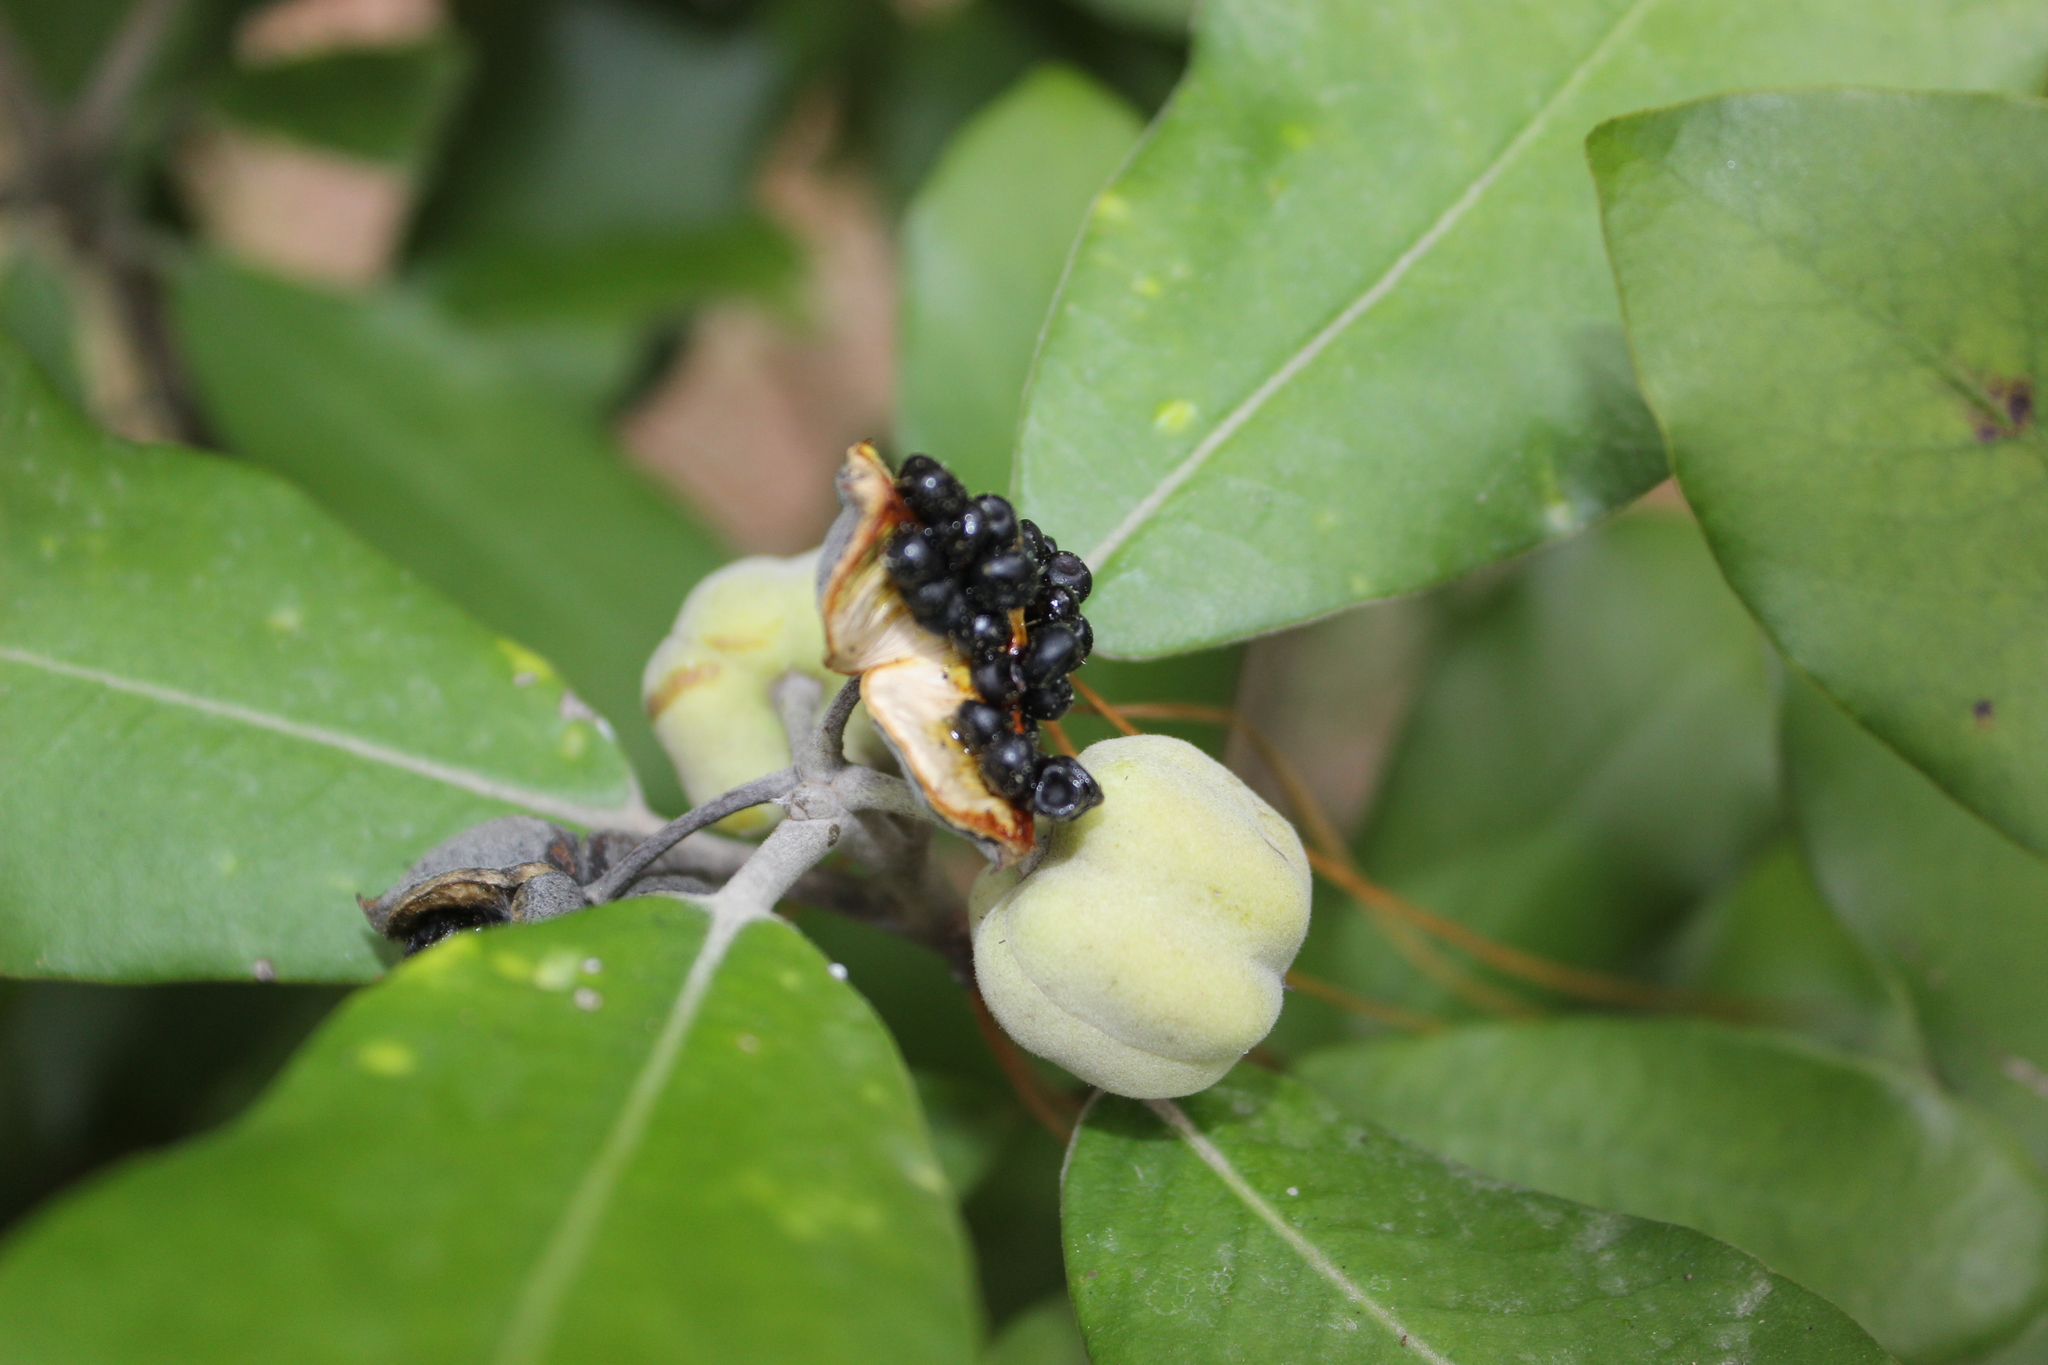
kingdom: Plantae
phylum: Tracheophyta
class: Magnoliopsida
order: Apiales
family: Pittosporaceae
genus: Pittosporum
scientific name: Pittosporum ralphii
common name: Ralph's desertwillow
